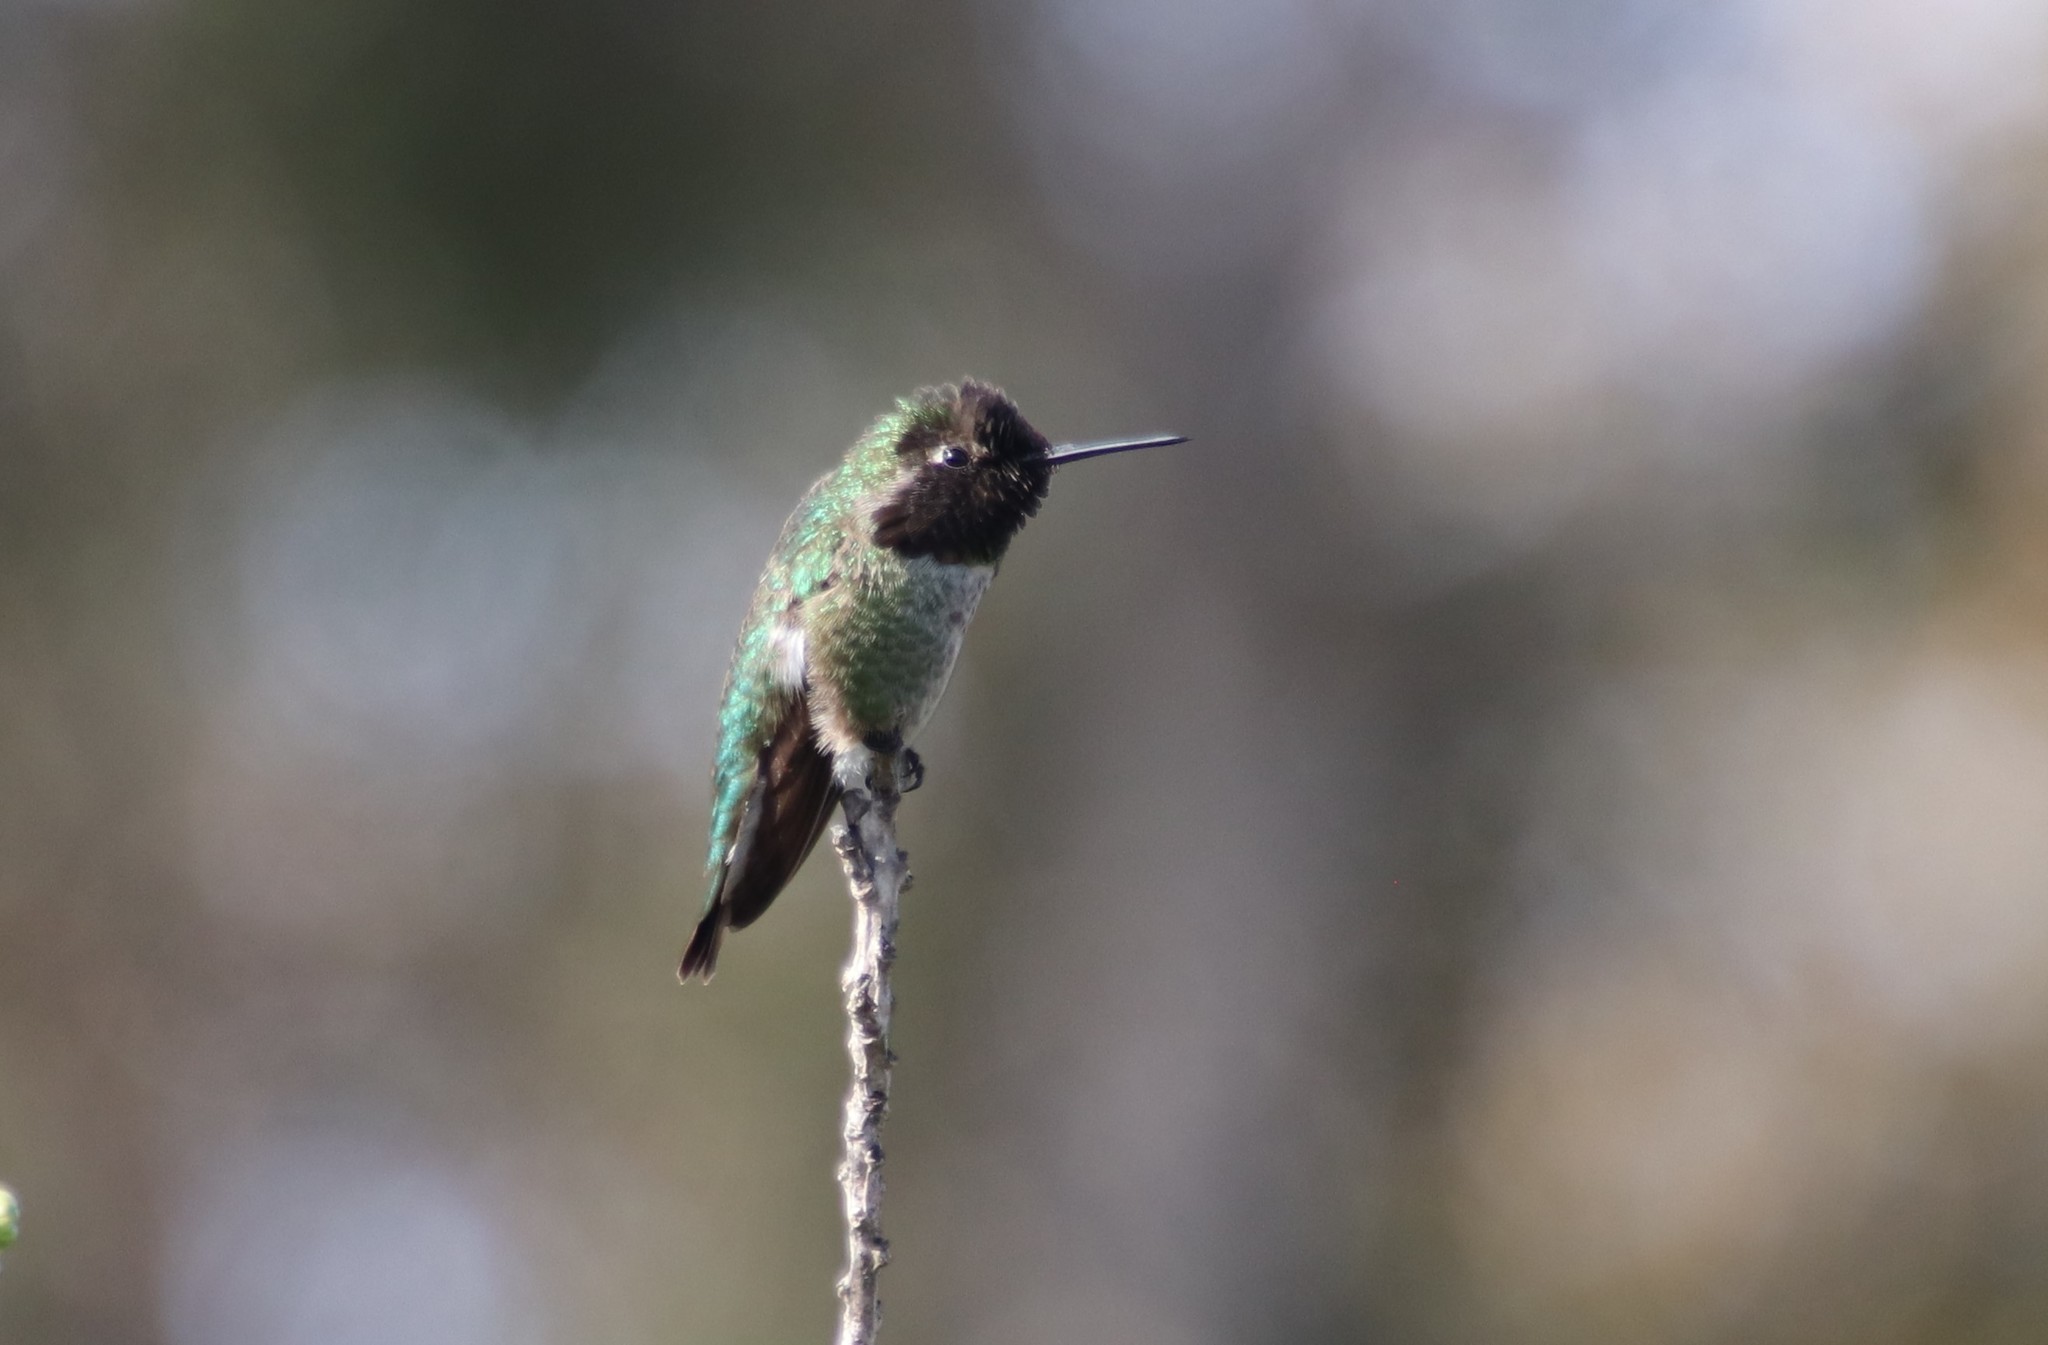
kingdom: Animalia
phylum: Chordata
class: Aves
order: Apodiformes
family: Trochilidae
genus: Calypte
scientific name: Calypte anna
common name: Anna's hummingbird
